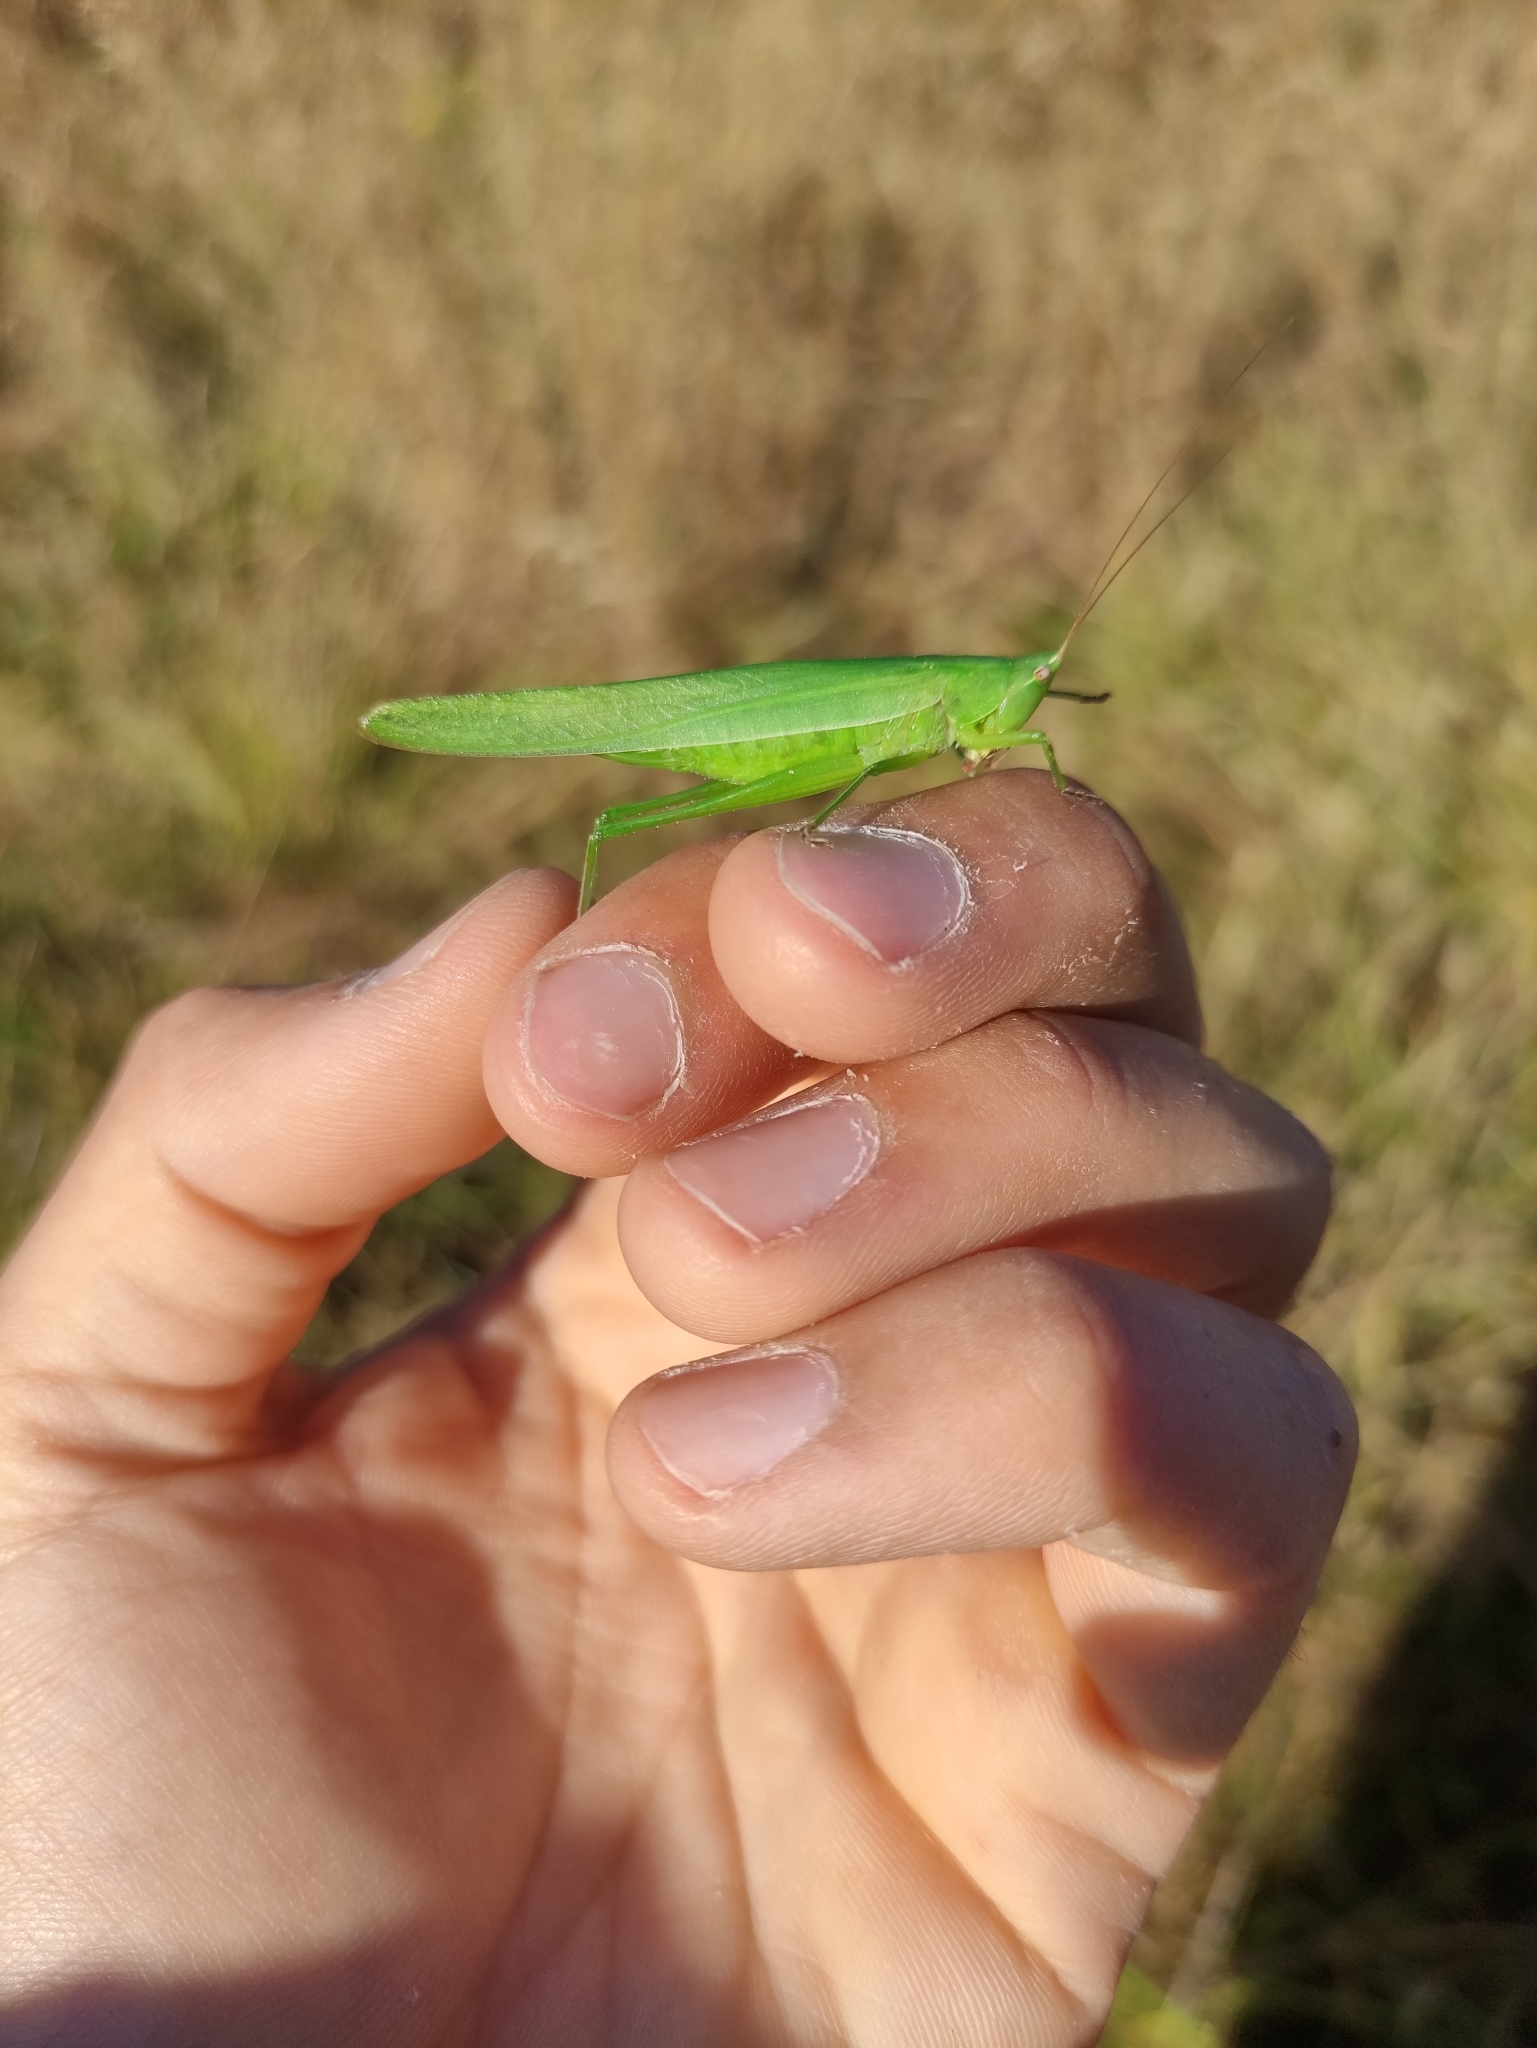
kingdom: Animalia
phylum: Arthropoda
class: Insecta
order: Orthoptera
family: Tettigoniidae
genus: Ruspolia
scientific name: Ruspolia nitidula
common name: Large conehead
